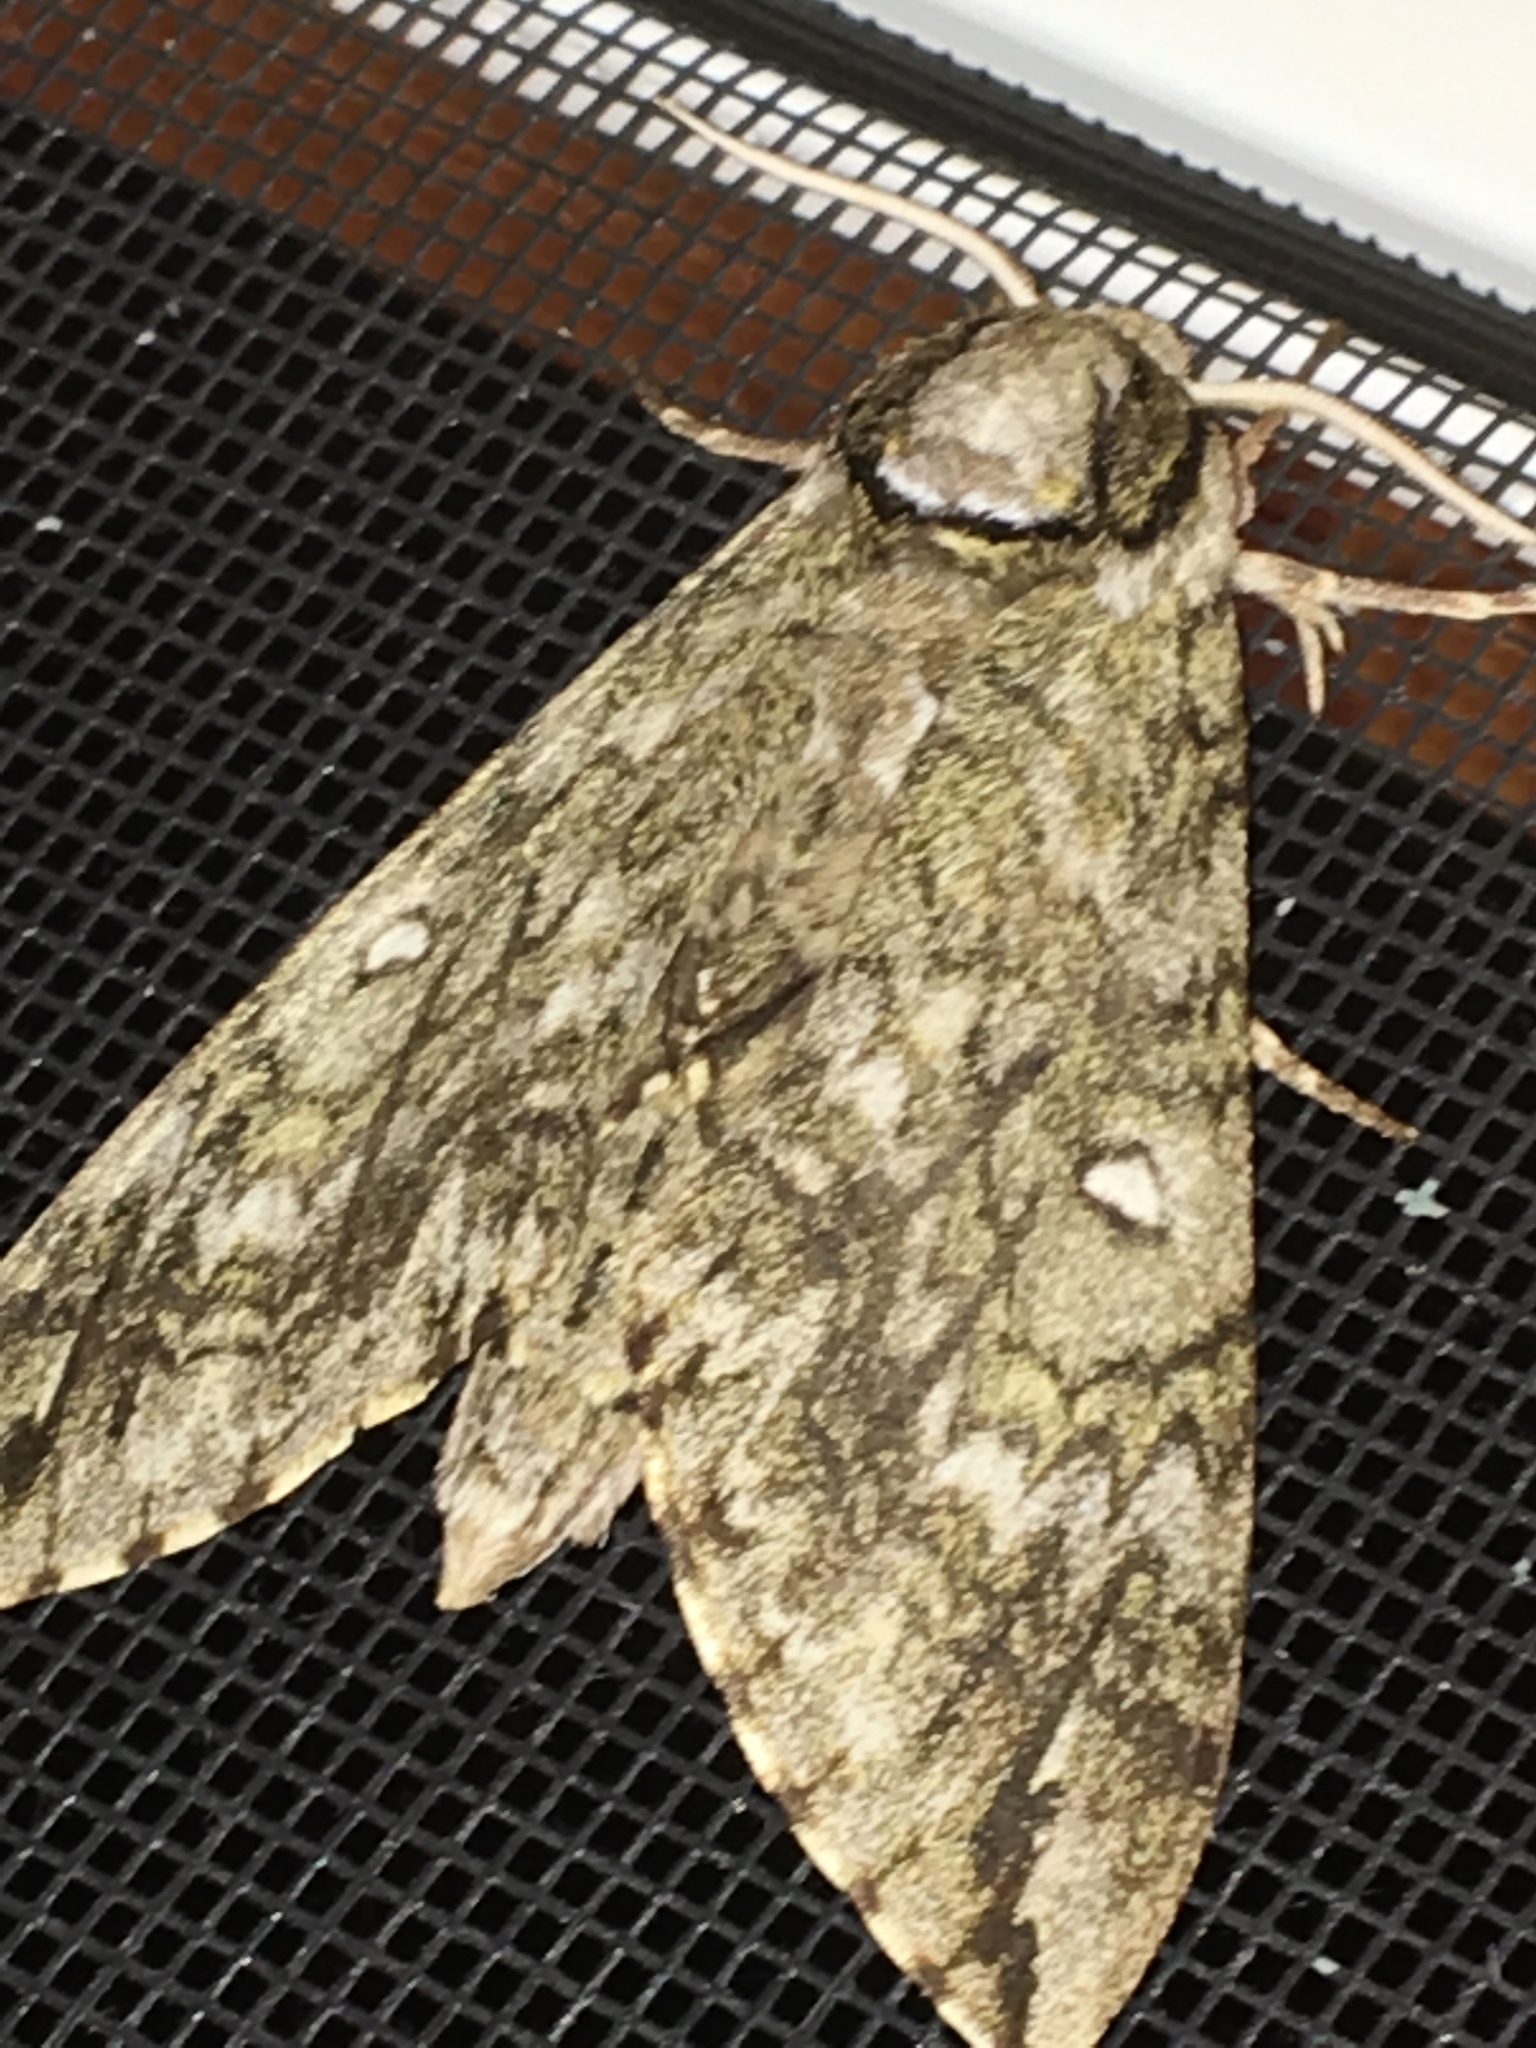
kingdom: Animalia
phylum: Arthropoda
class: Insecta
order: Lepidoptera
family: Sphingidae
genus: Ceratomia
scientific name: Ceratomia undulosa
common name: Waved sphinx
